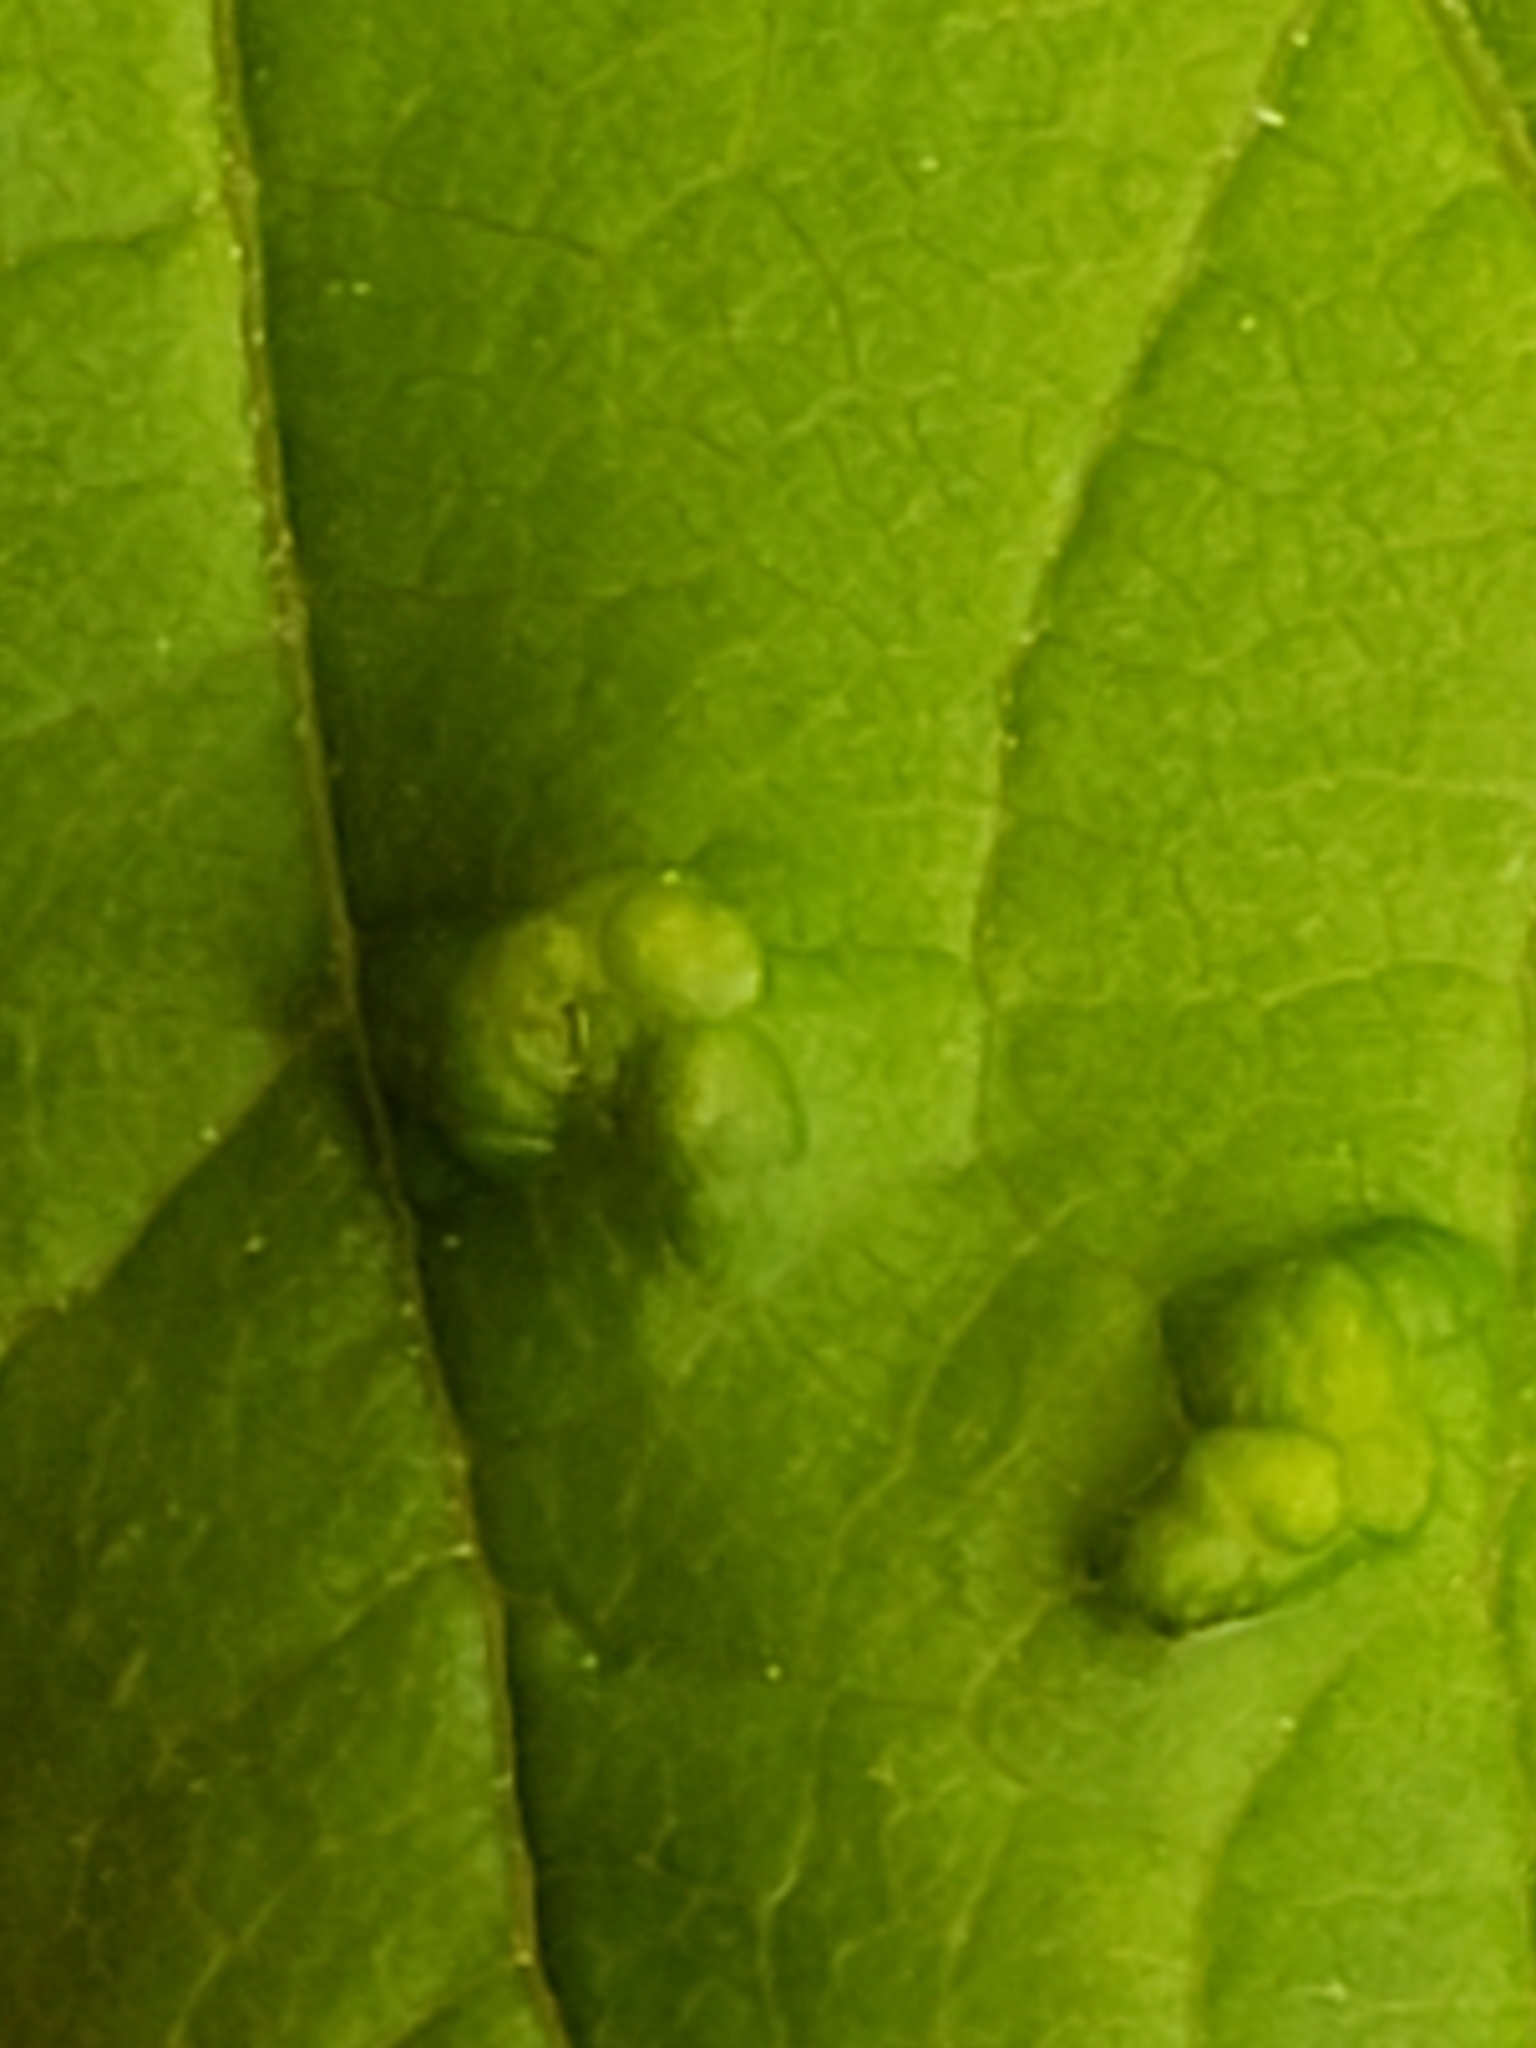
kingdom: Animalia
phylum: Arthropoda
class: Arachnida
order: Trombidiformes
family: Eriophyidae
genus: Aceria
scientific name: Aceria
